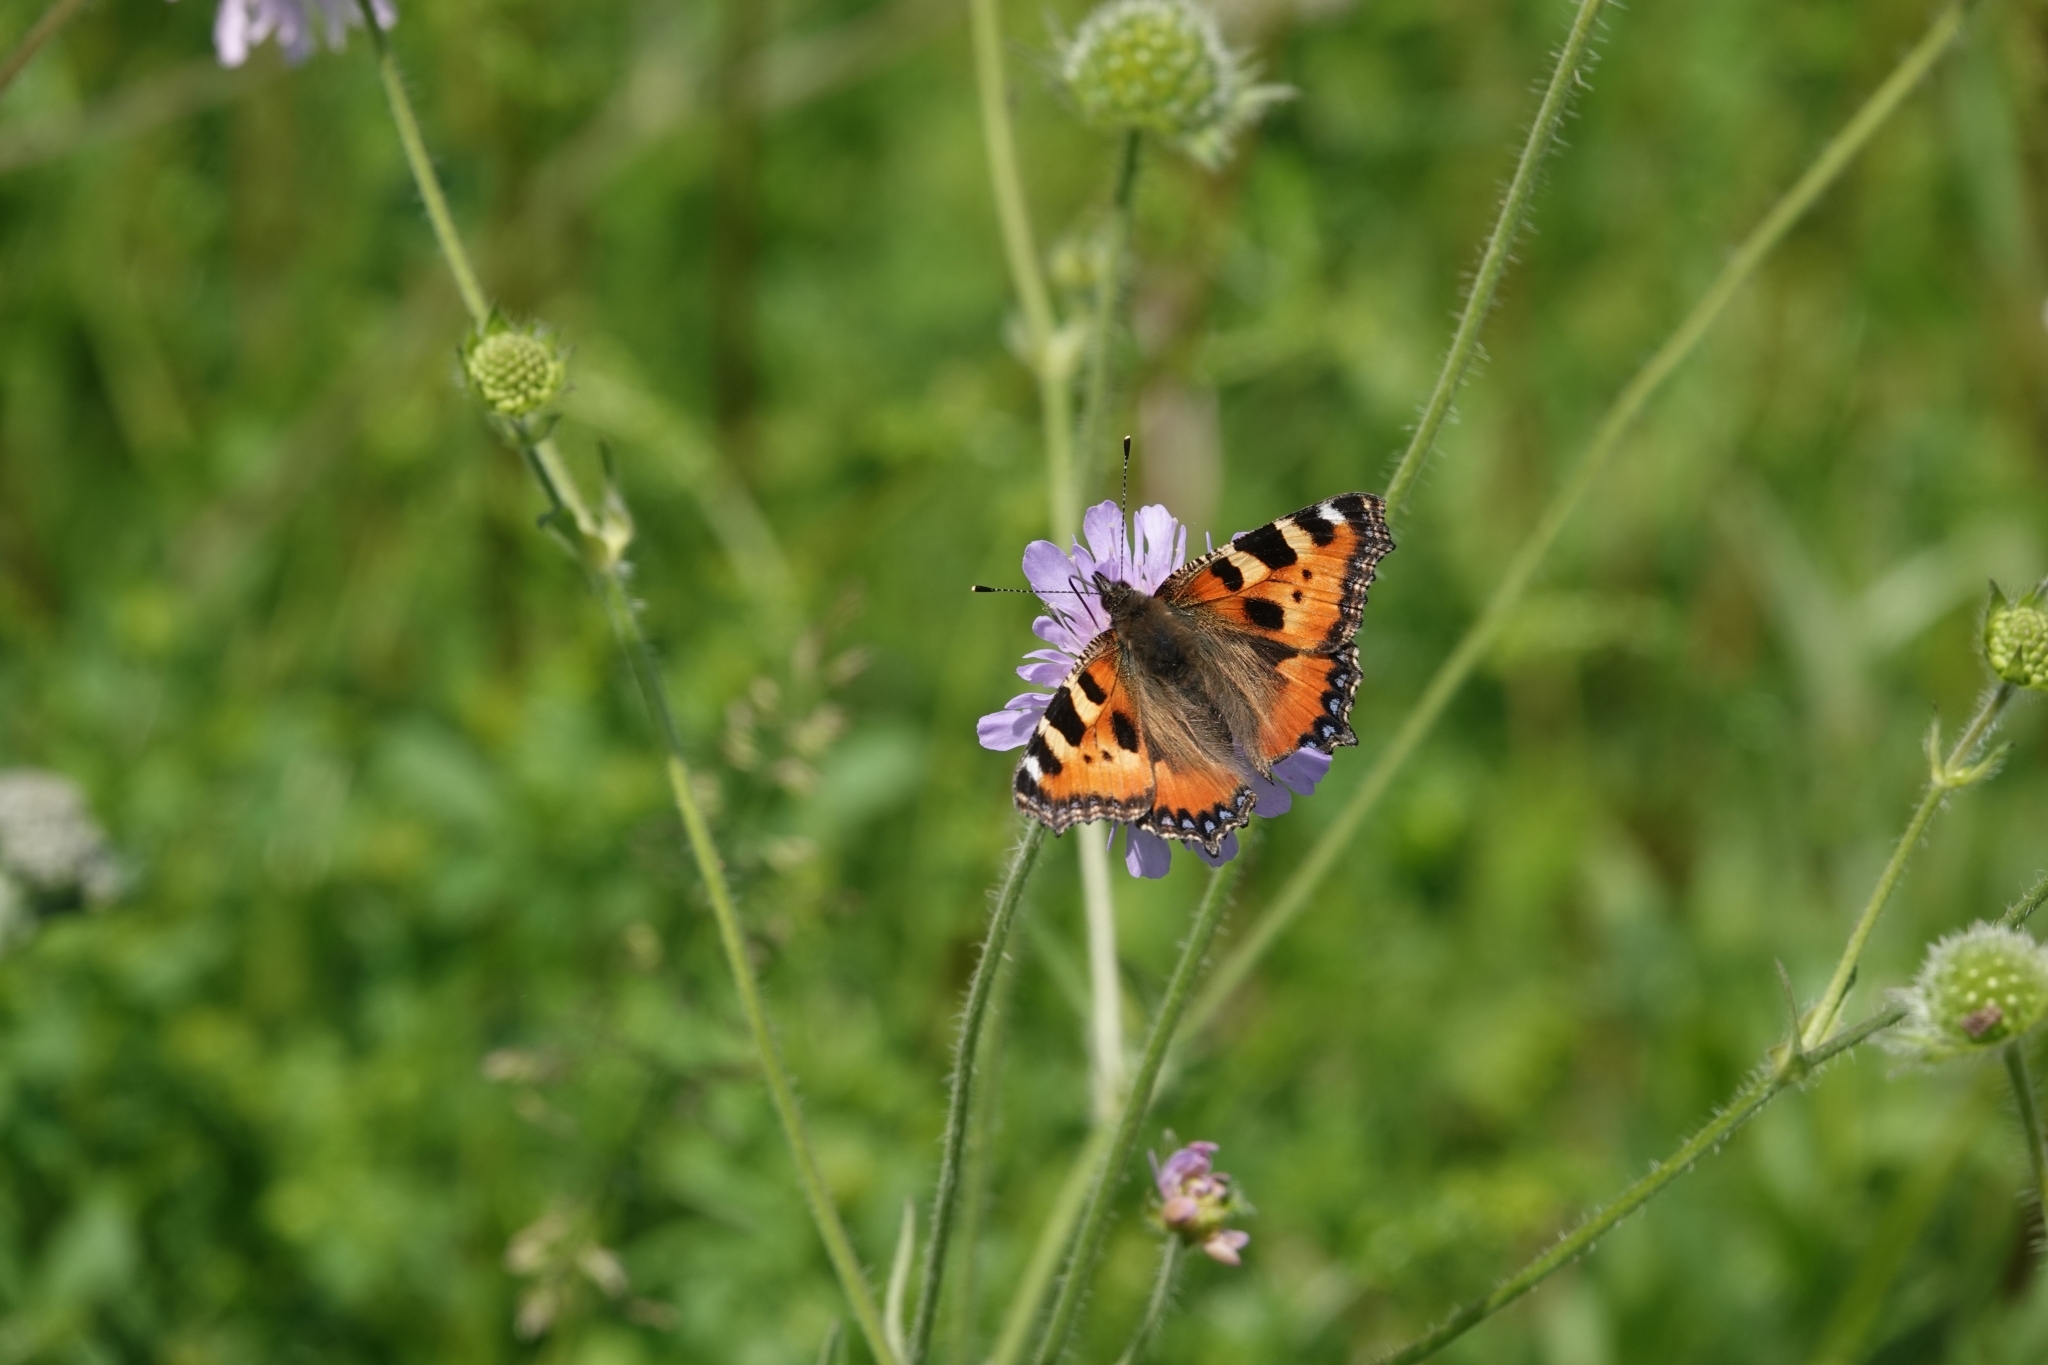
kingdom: Animalia
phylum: Arthropoda
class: Insecta
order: Lepidoptera
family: Nymphalidae
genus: Aglais
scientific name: Aglais urticae
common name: Small tortoiseshell
